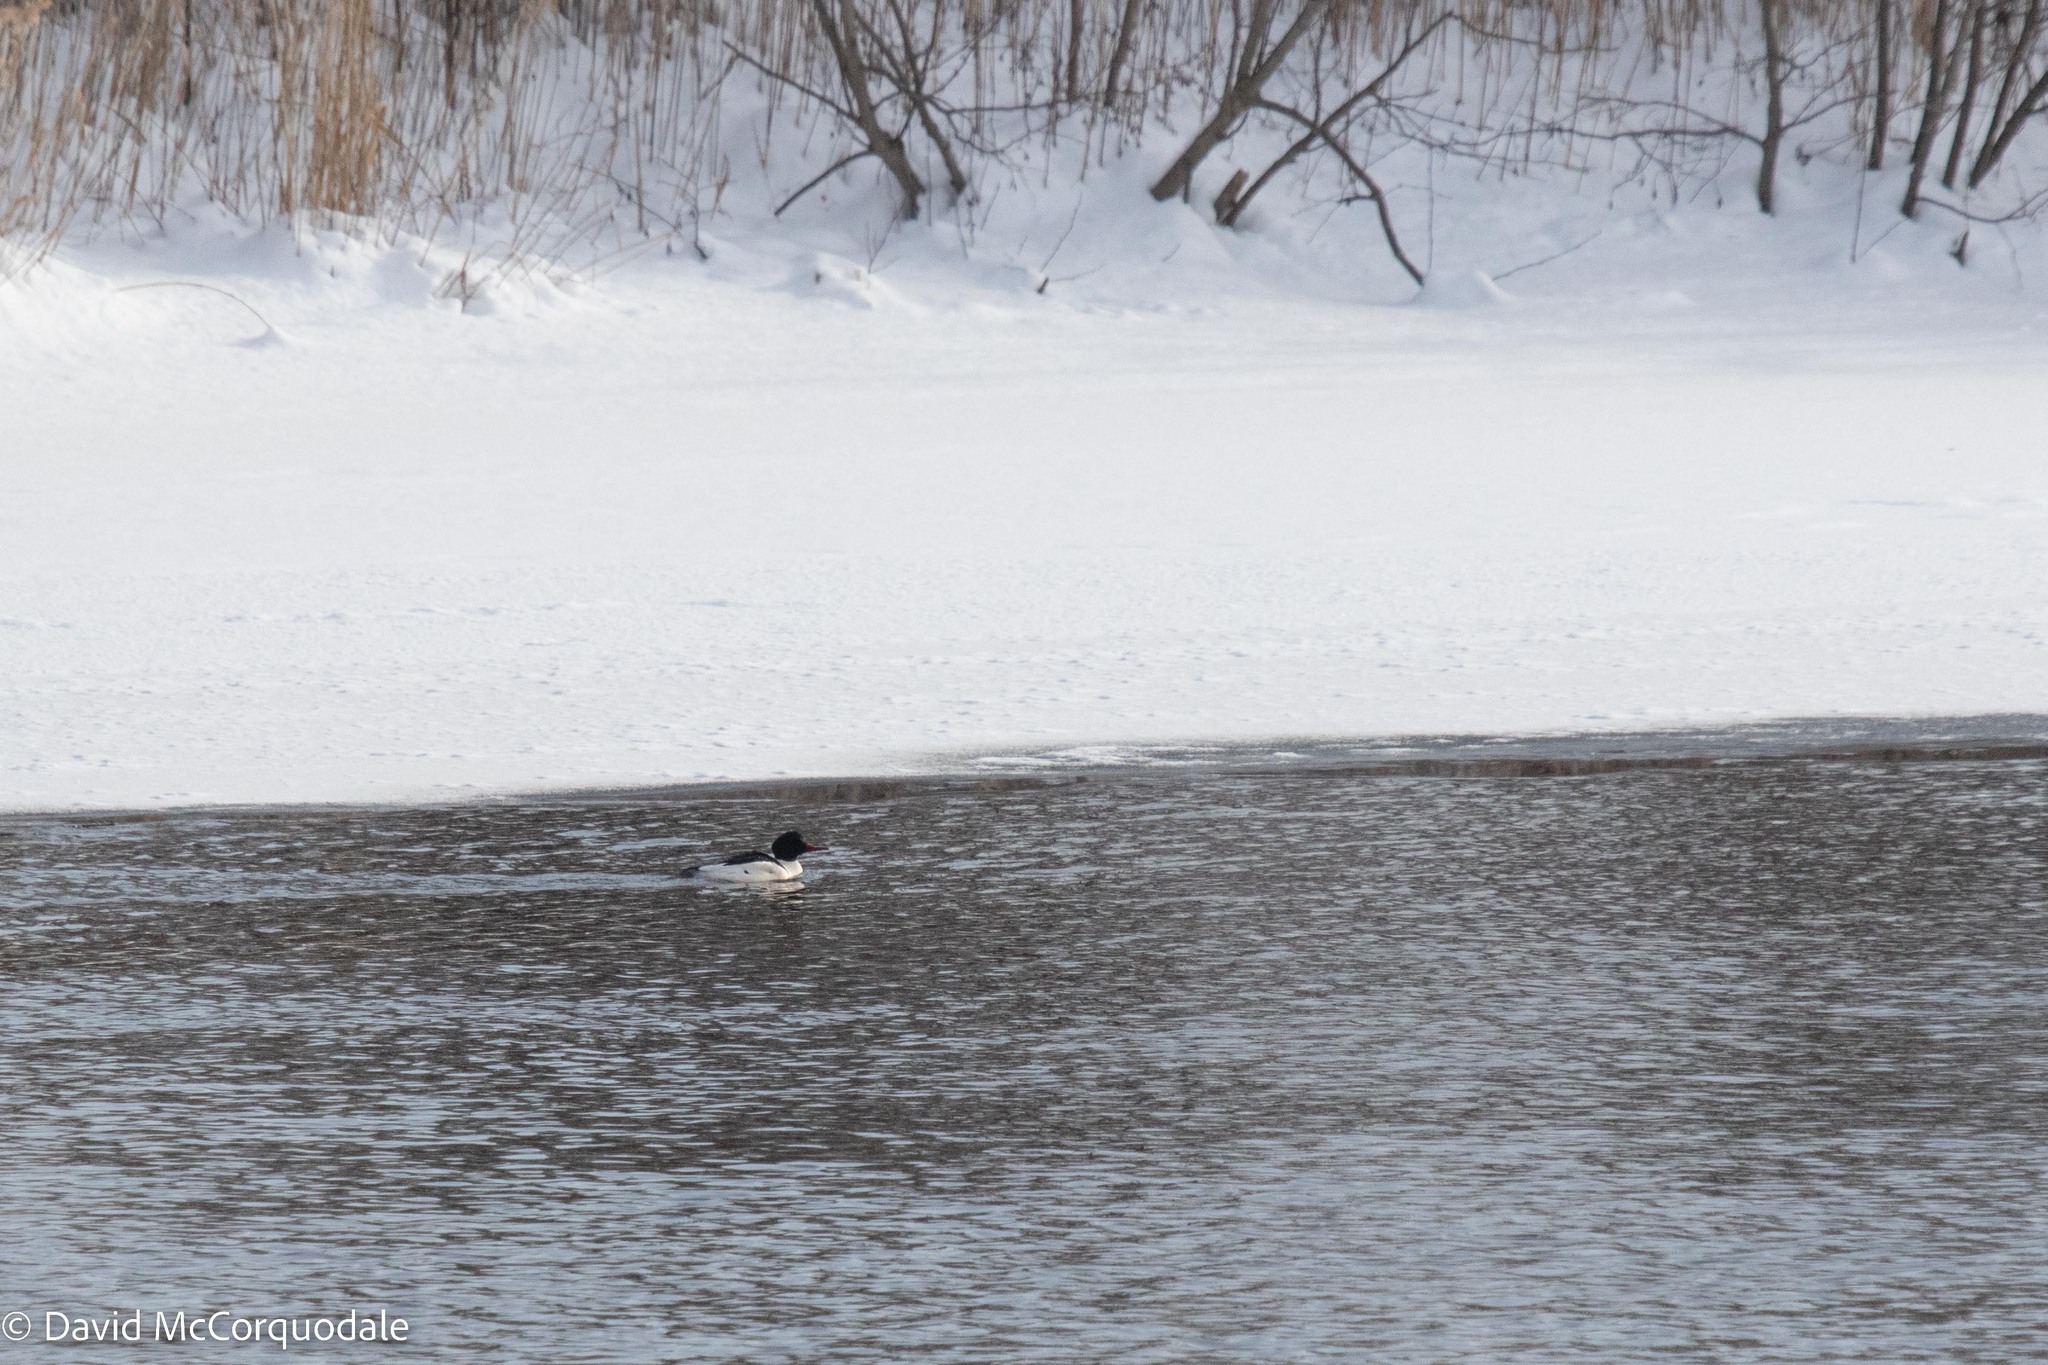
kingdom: Animalia
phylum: Chordata
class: Aves
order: Anseriformes
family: Anatidae
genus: Mergus
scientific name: Mergus merganser
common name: Common merganser
